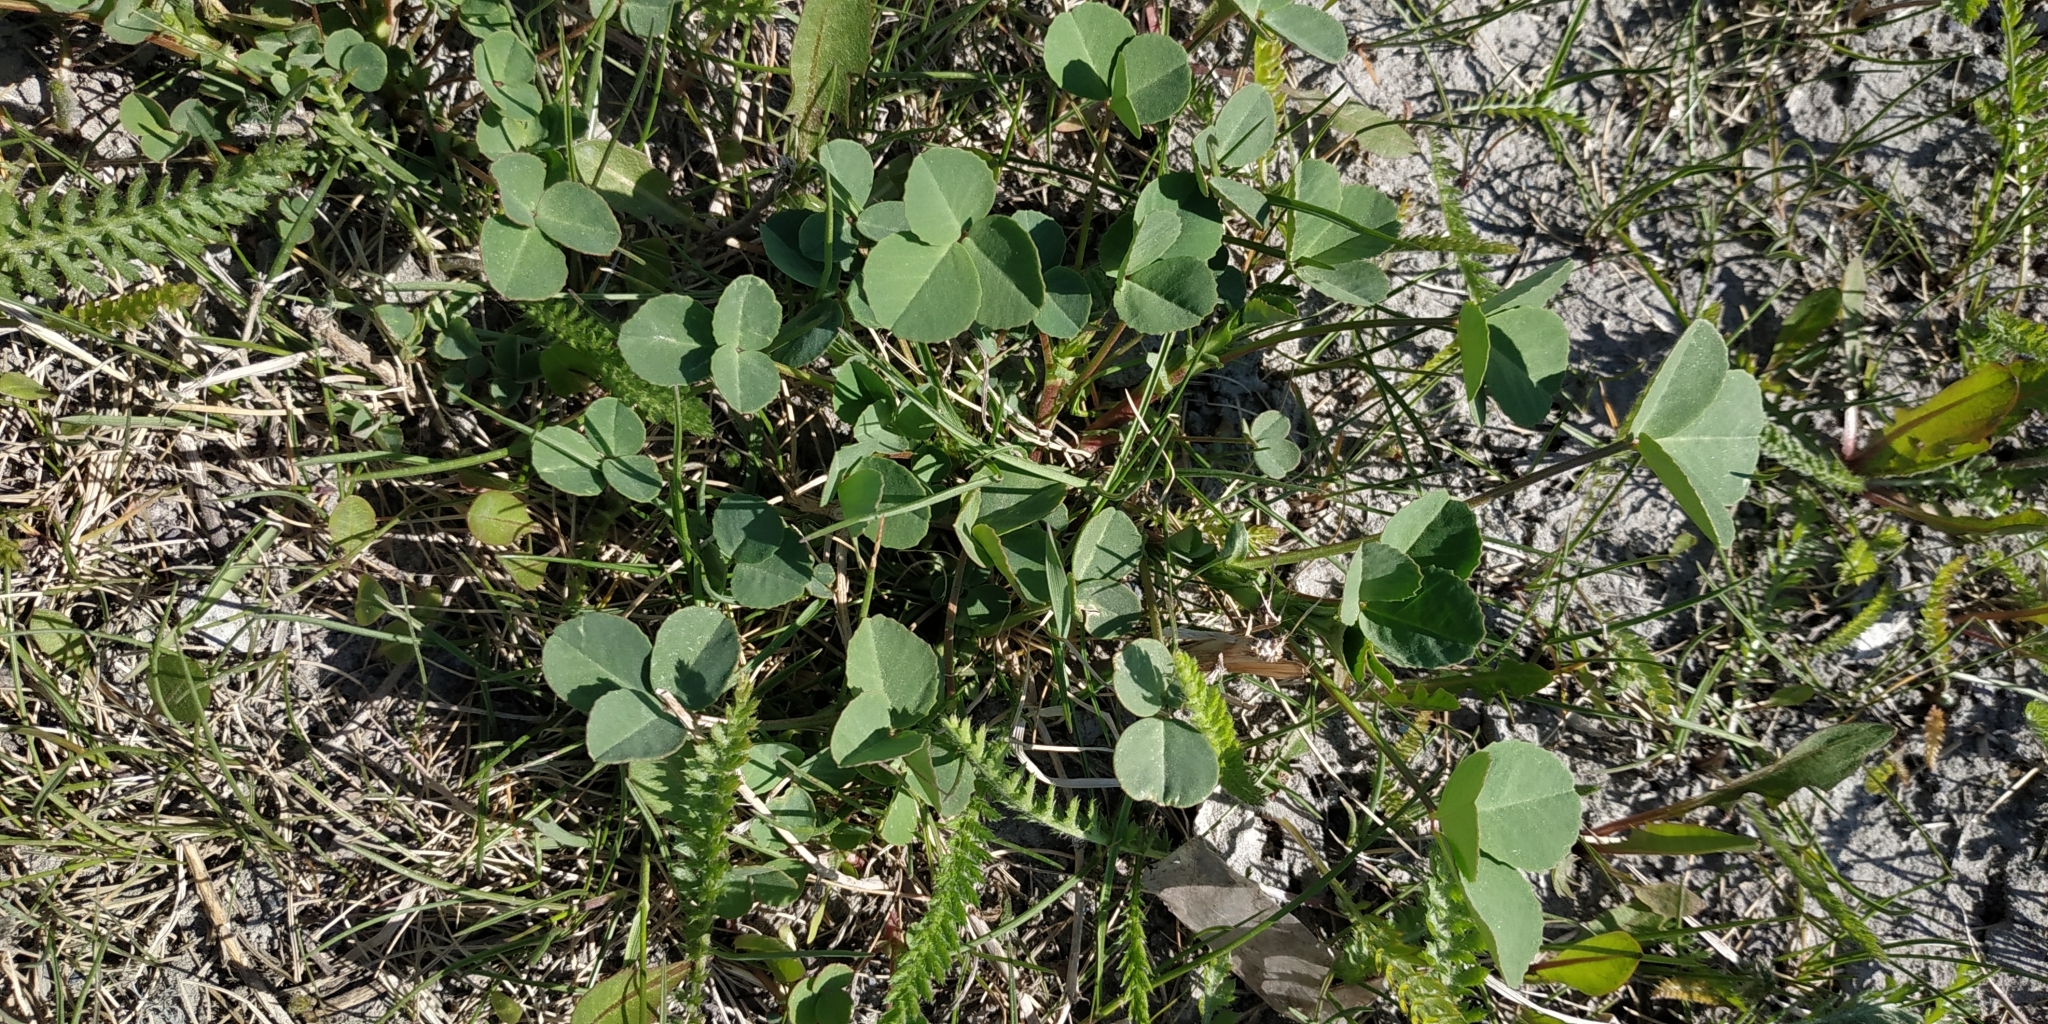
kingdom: Plantae
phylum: Tracheophyta
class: Magnoliopsida
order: Fabales
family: Fabaceae
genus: Medicago
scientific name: Medicago lupulina
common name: Black medick
